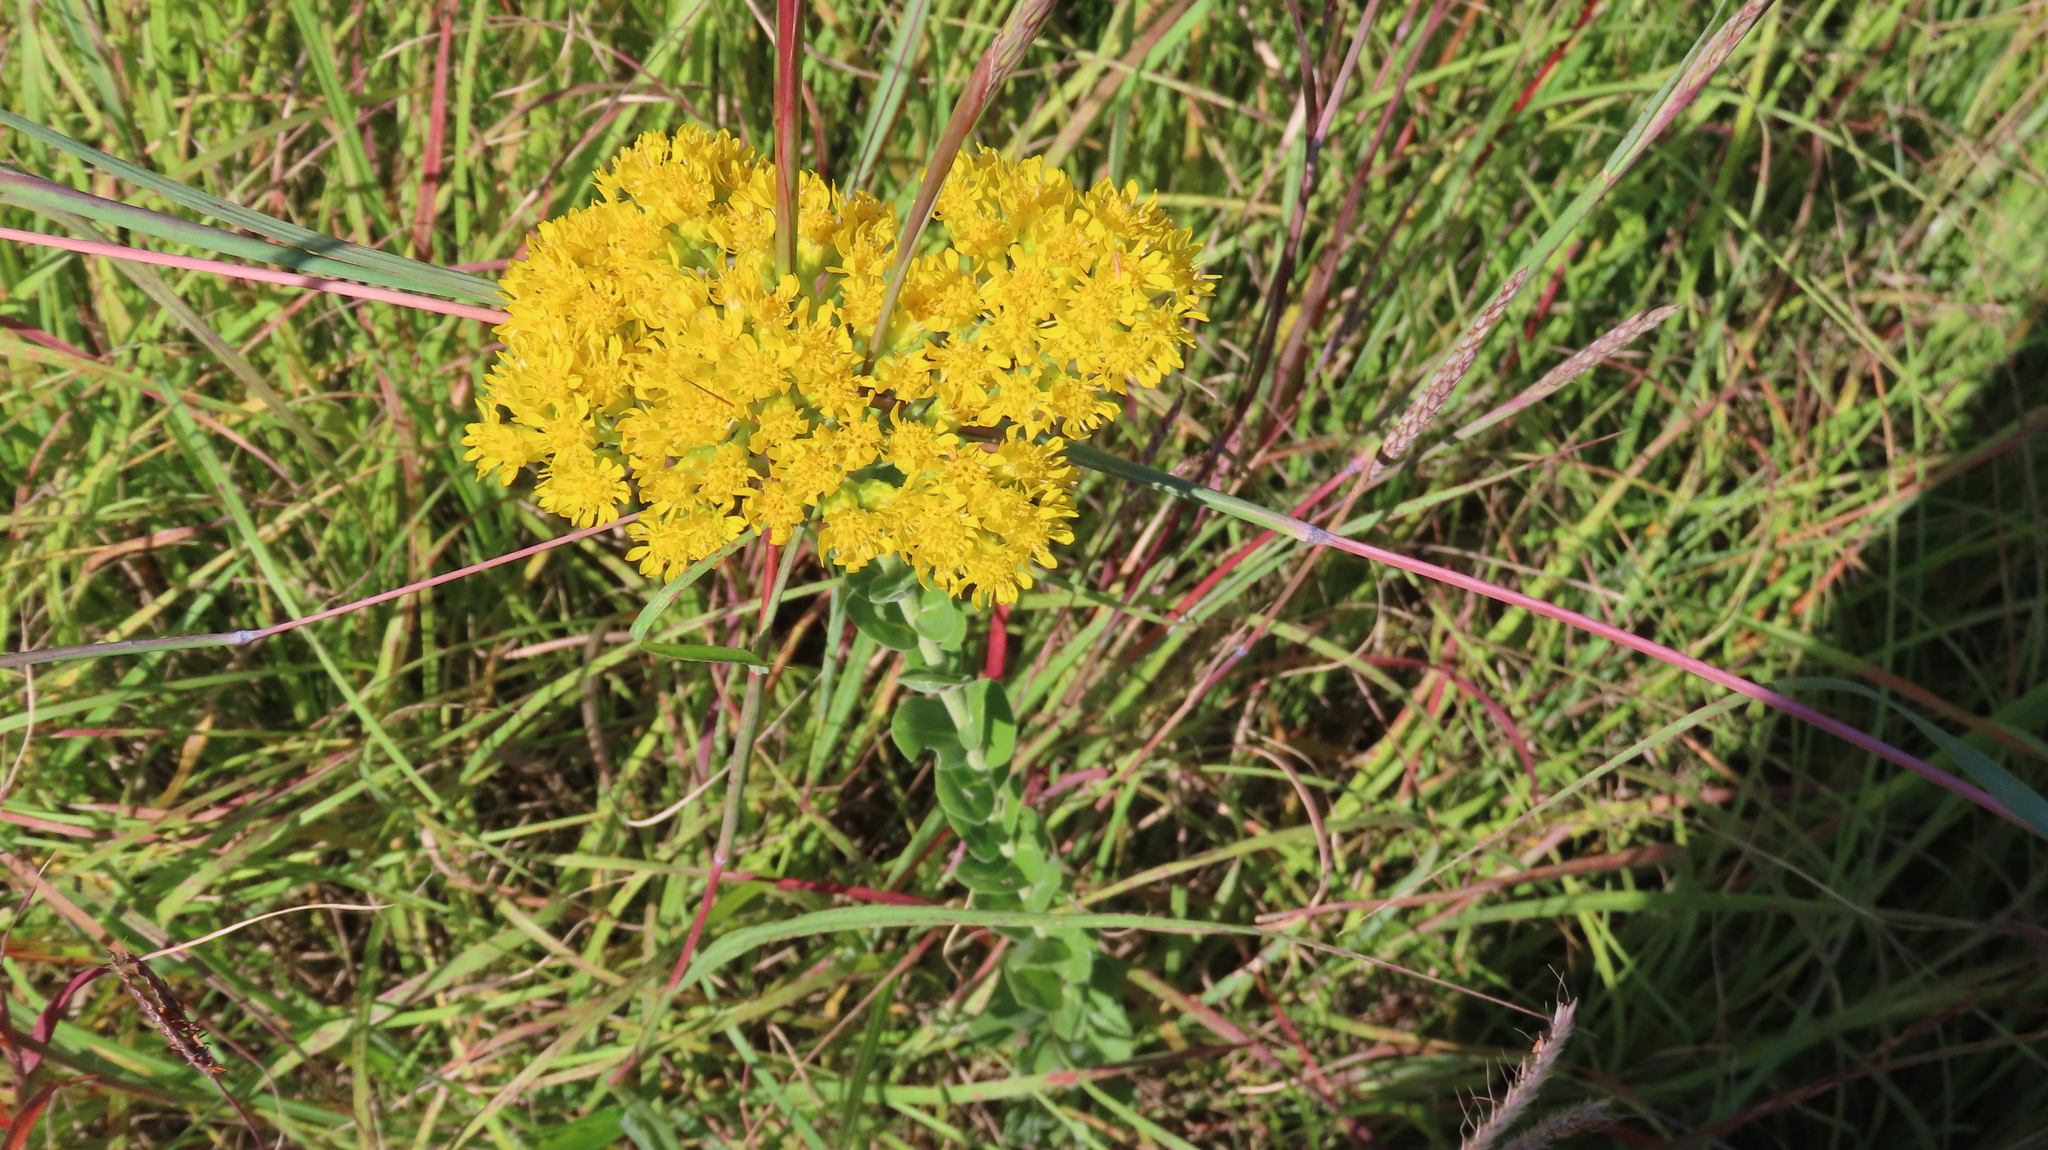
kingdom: Plantae
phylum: Tracheophyta
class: Magnoliopsida
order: Asterales
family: Asteraceae
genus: Solidago
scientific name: Solidago rigida
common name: Rigid goldenrod
